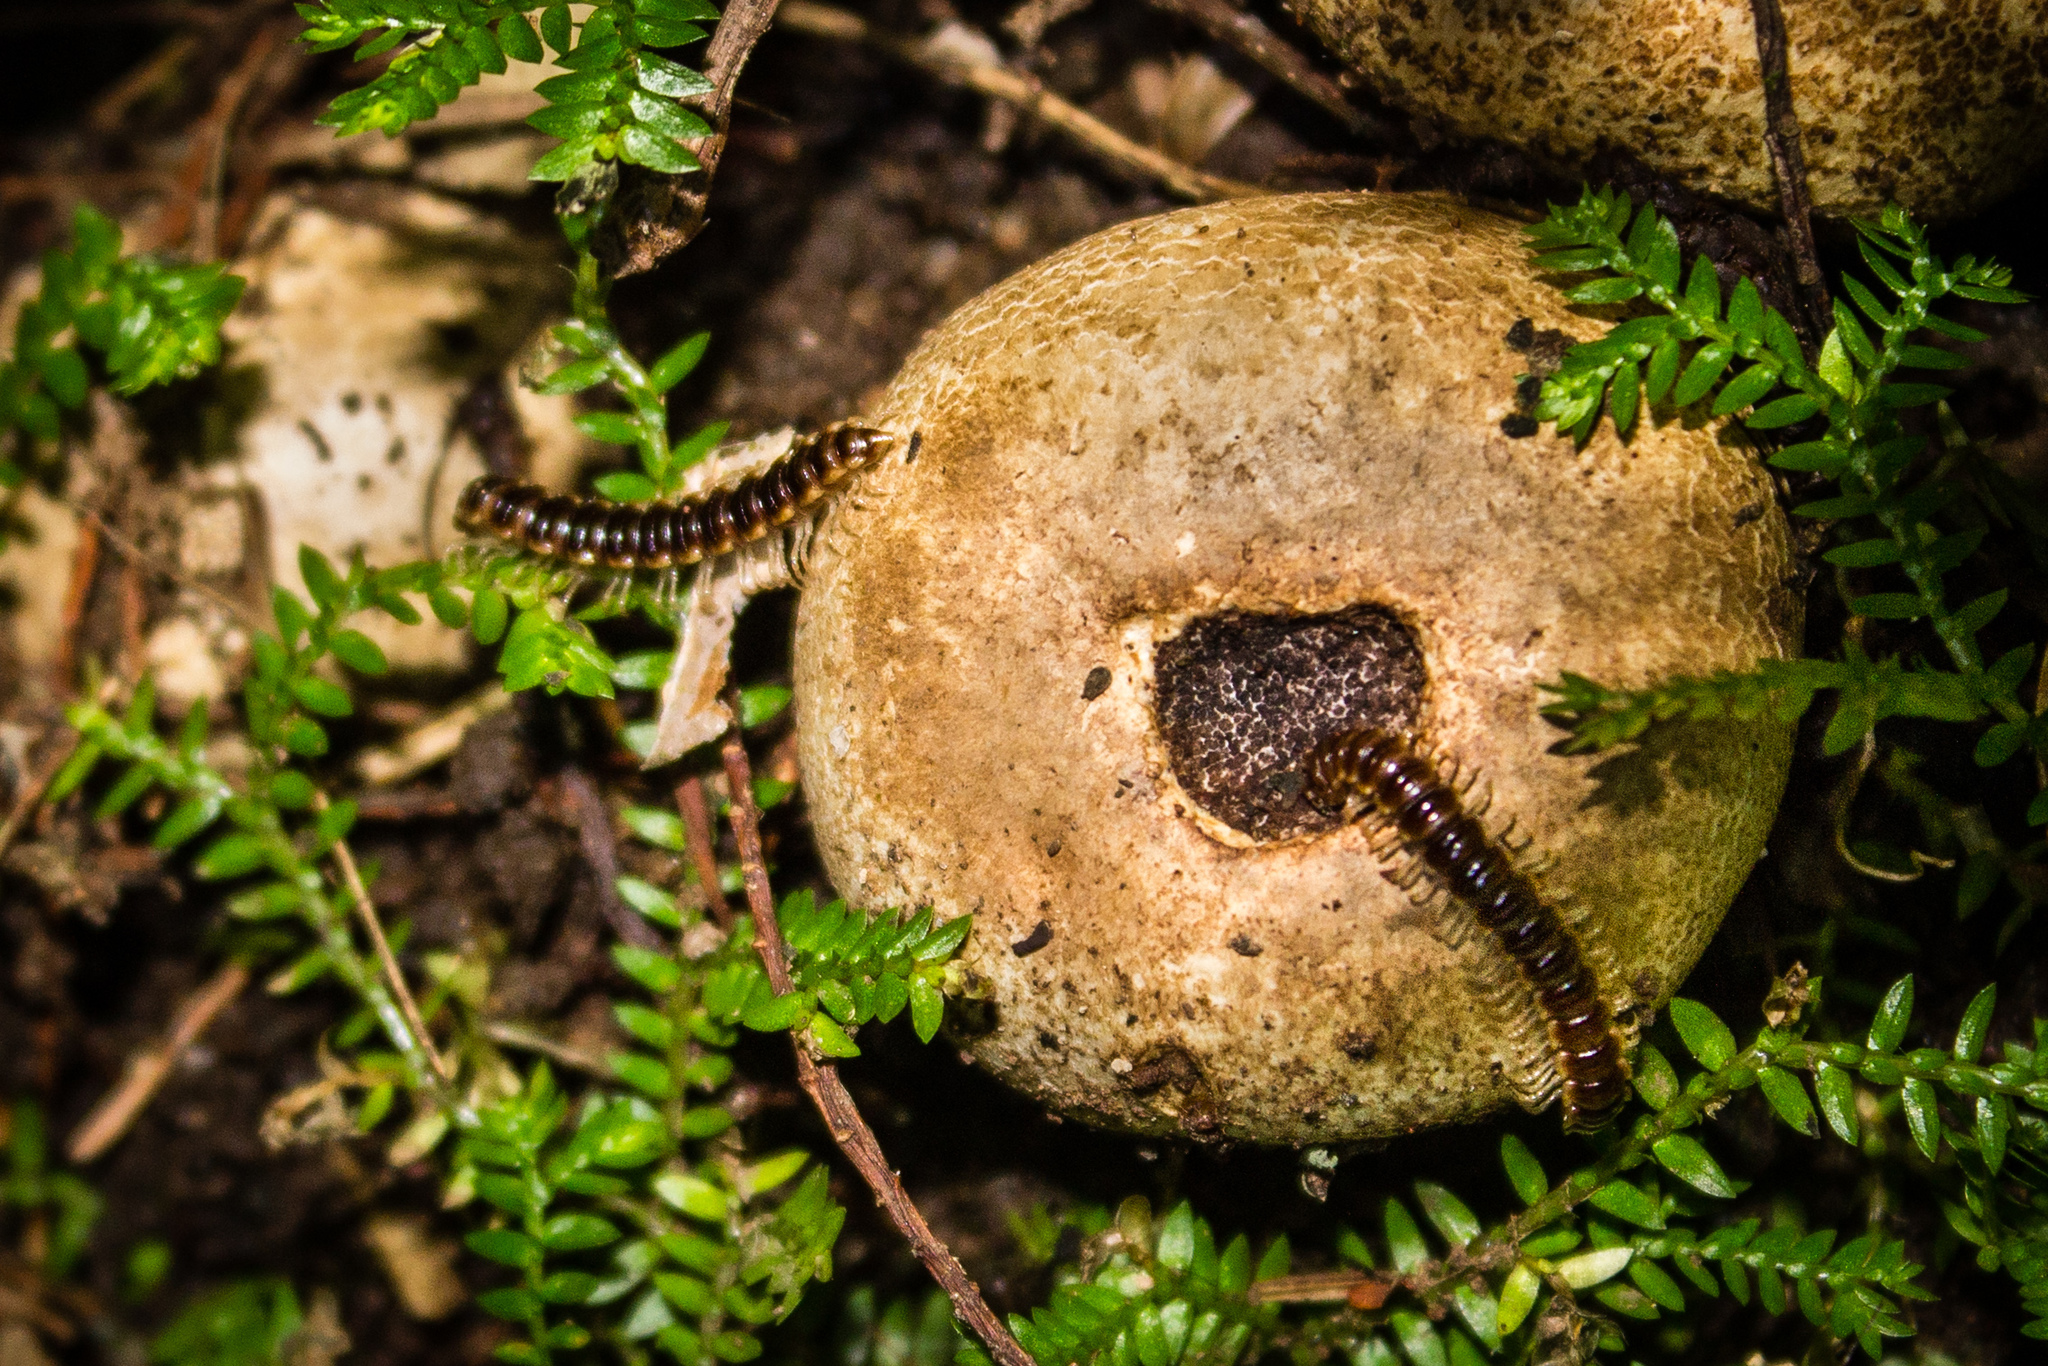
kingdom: Plantae
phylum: Tracheophyta
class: Lycopodiopsida
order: Selaginellales
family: Selaginellaceae
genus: Selaginella
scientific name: Selaginella kraussiana
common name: Krauss' spikemoss
